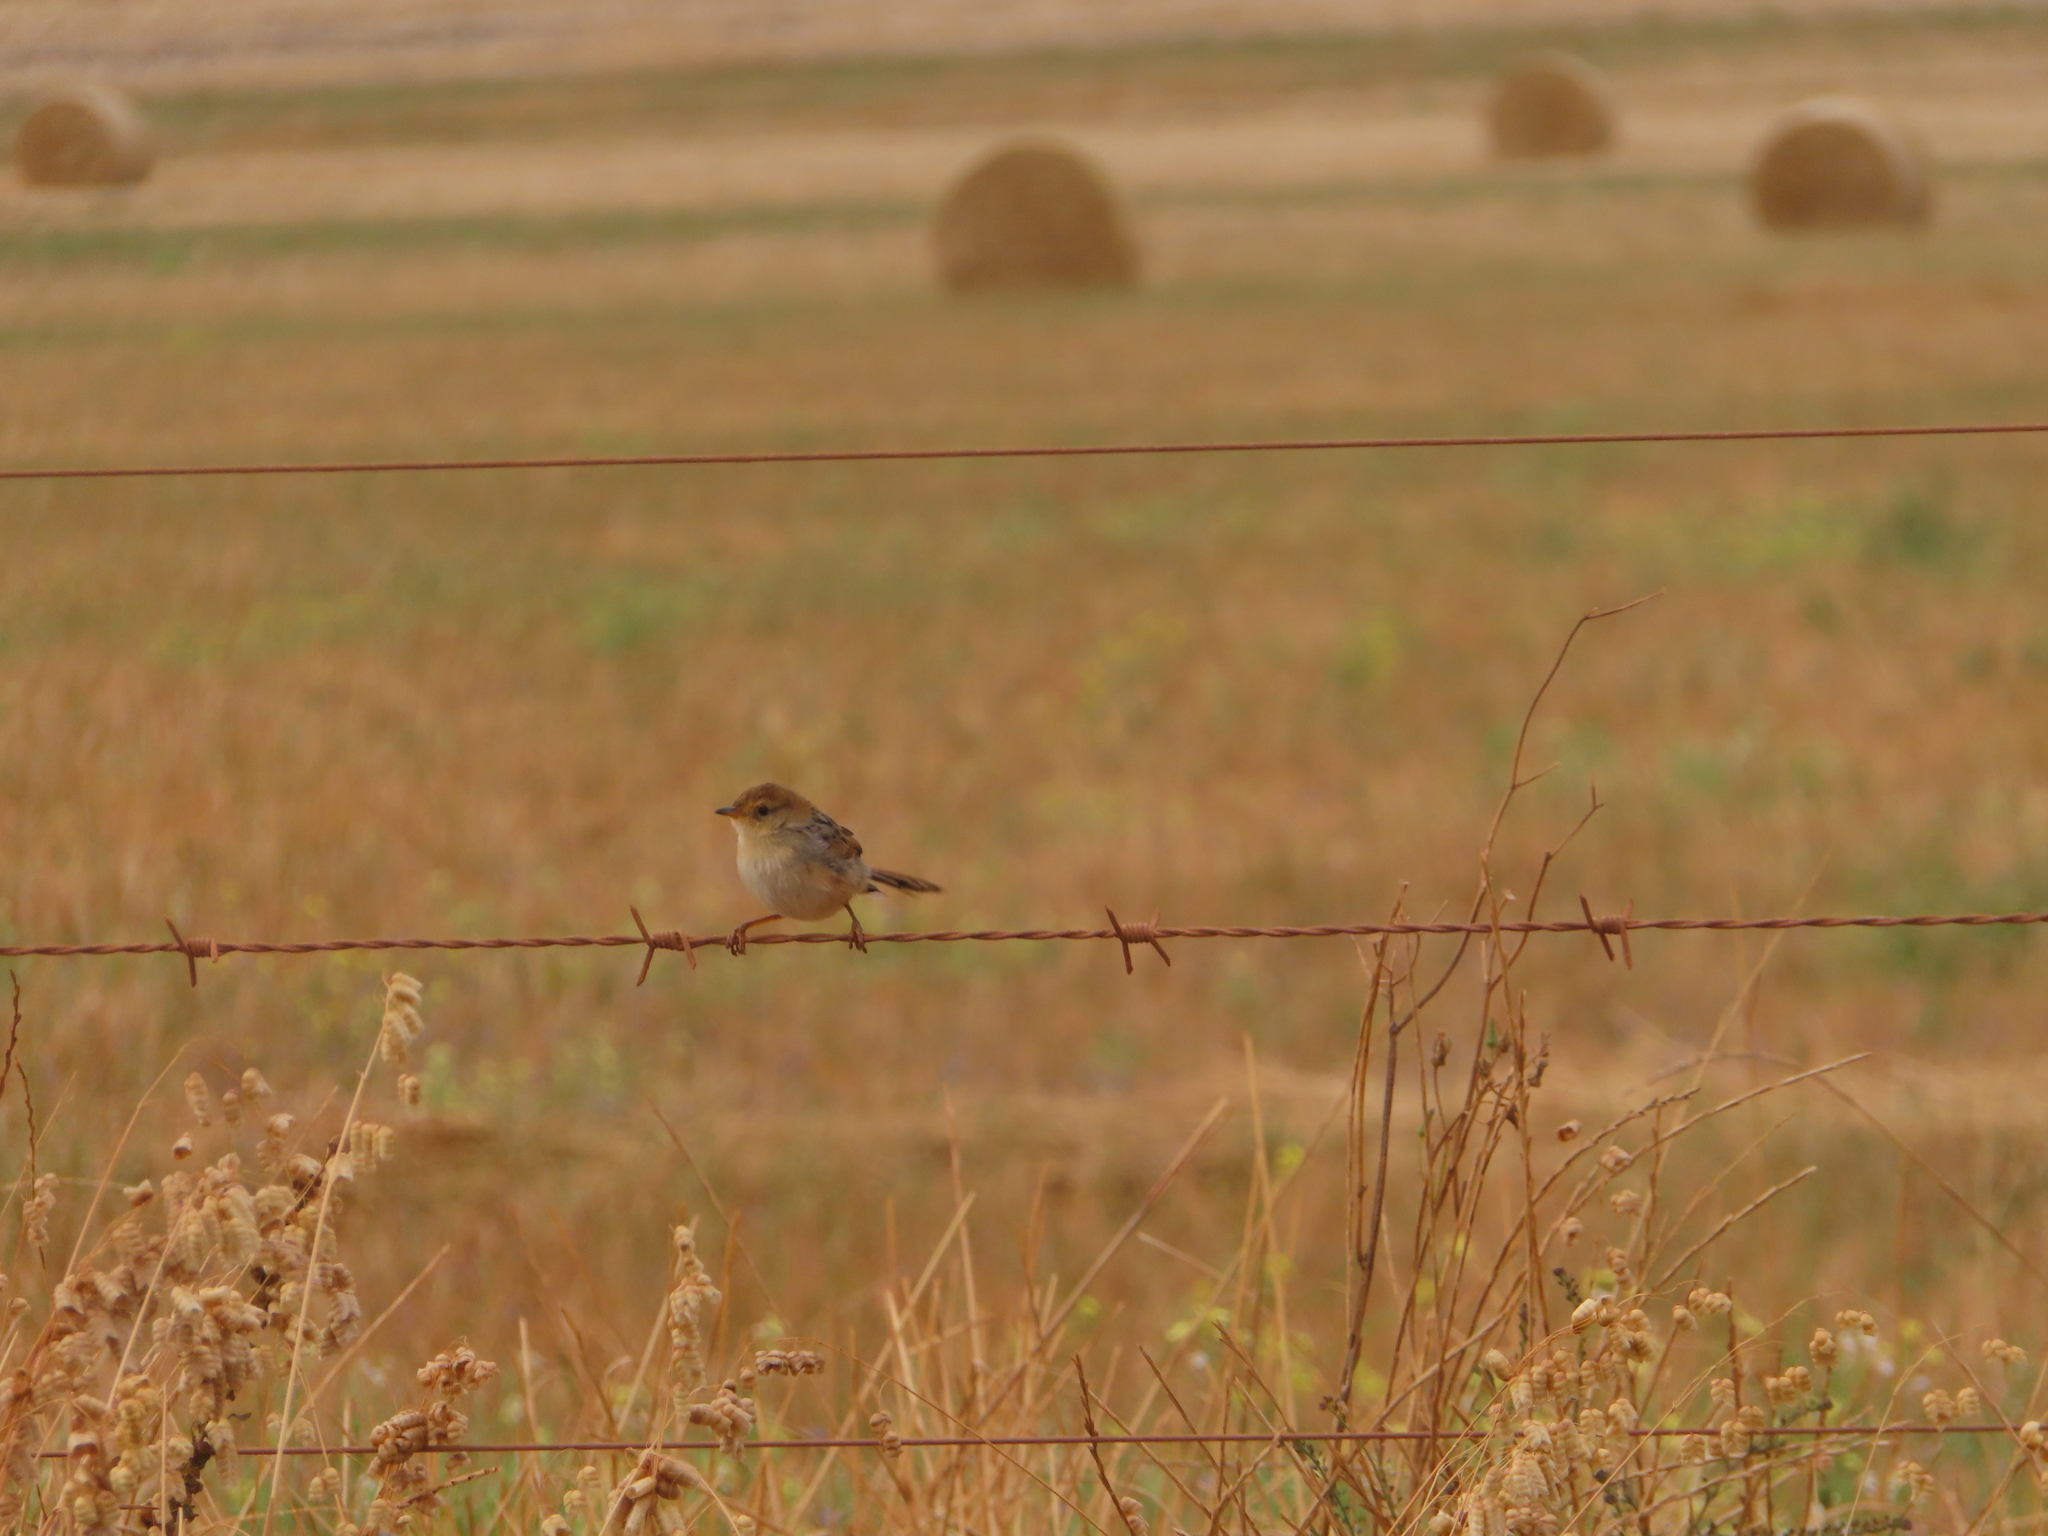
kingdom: Animalia
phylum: Chordata
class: Aves
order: Passeriformes
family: Cisticolidae
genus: Cisticola
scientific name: Cisticola tinniens
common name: Levaillant's cisticola
